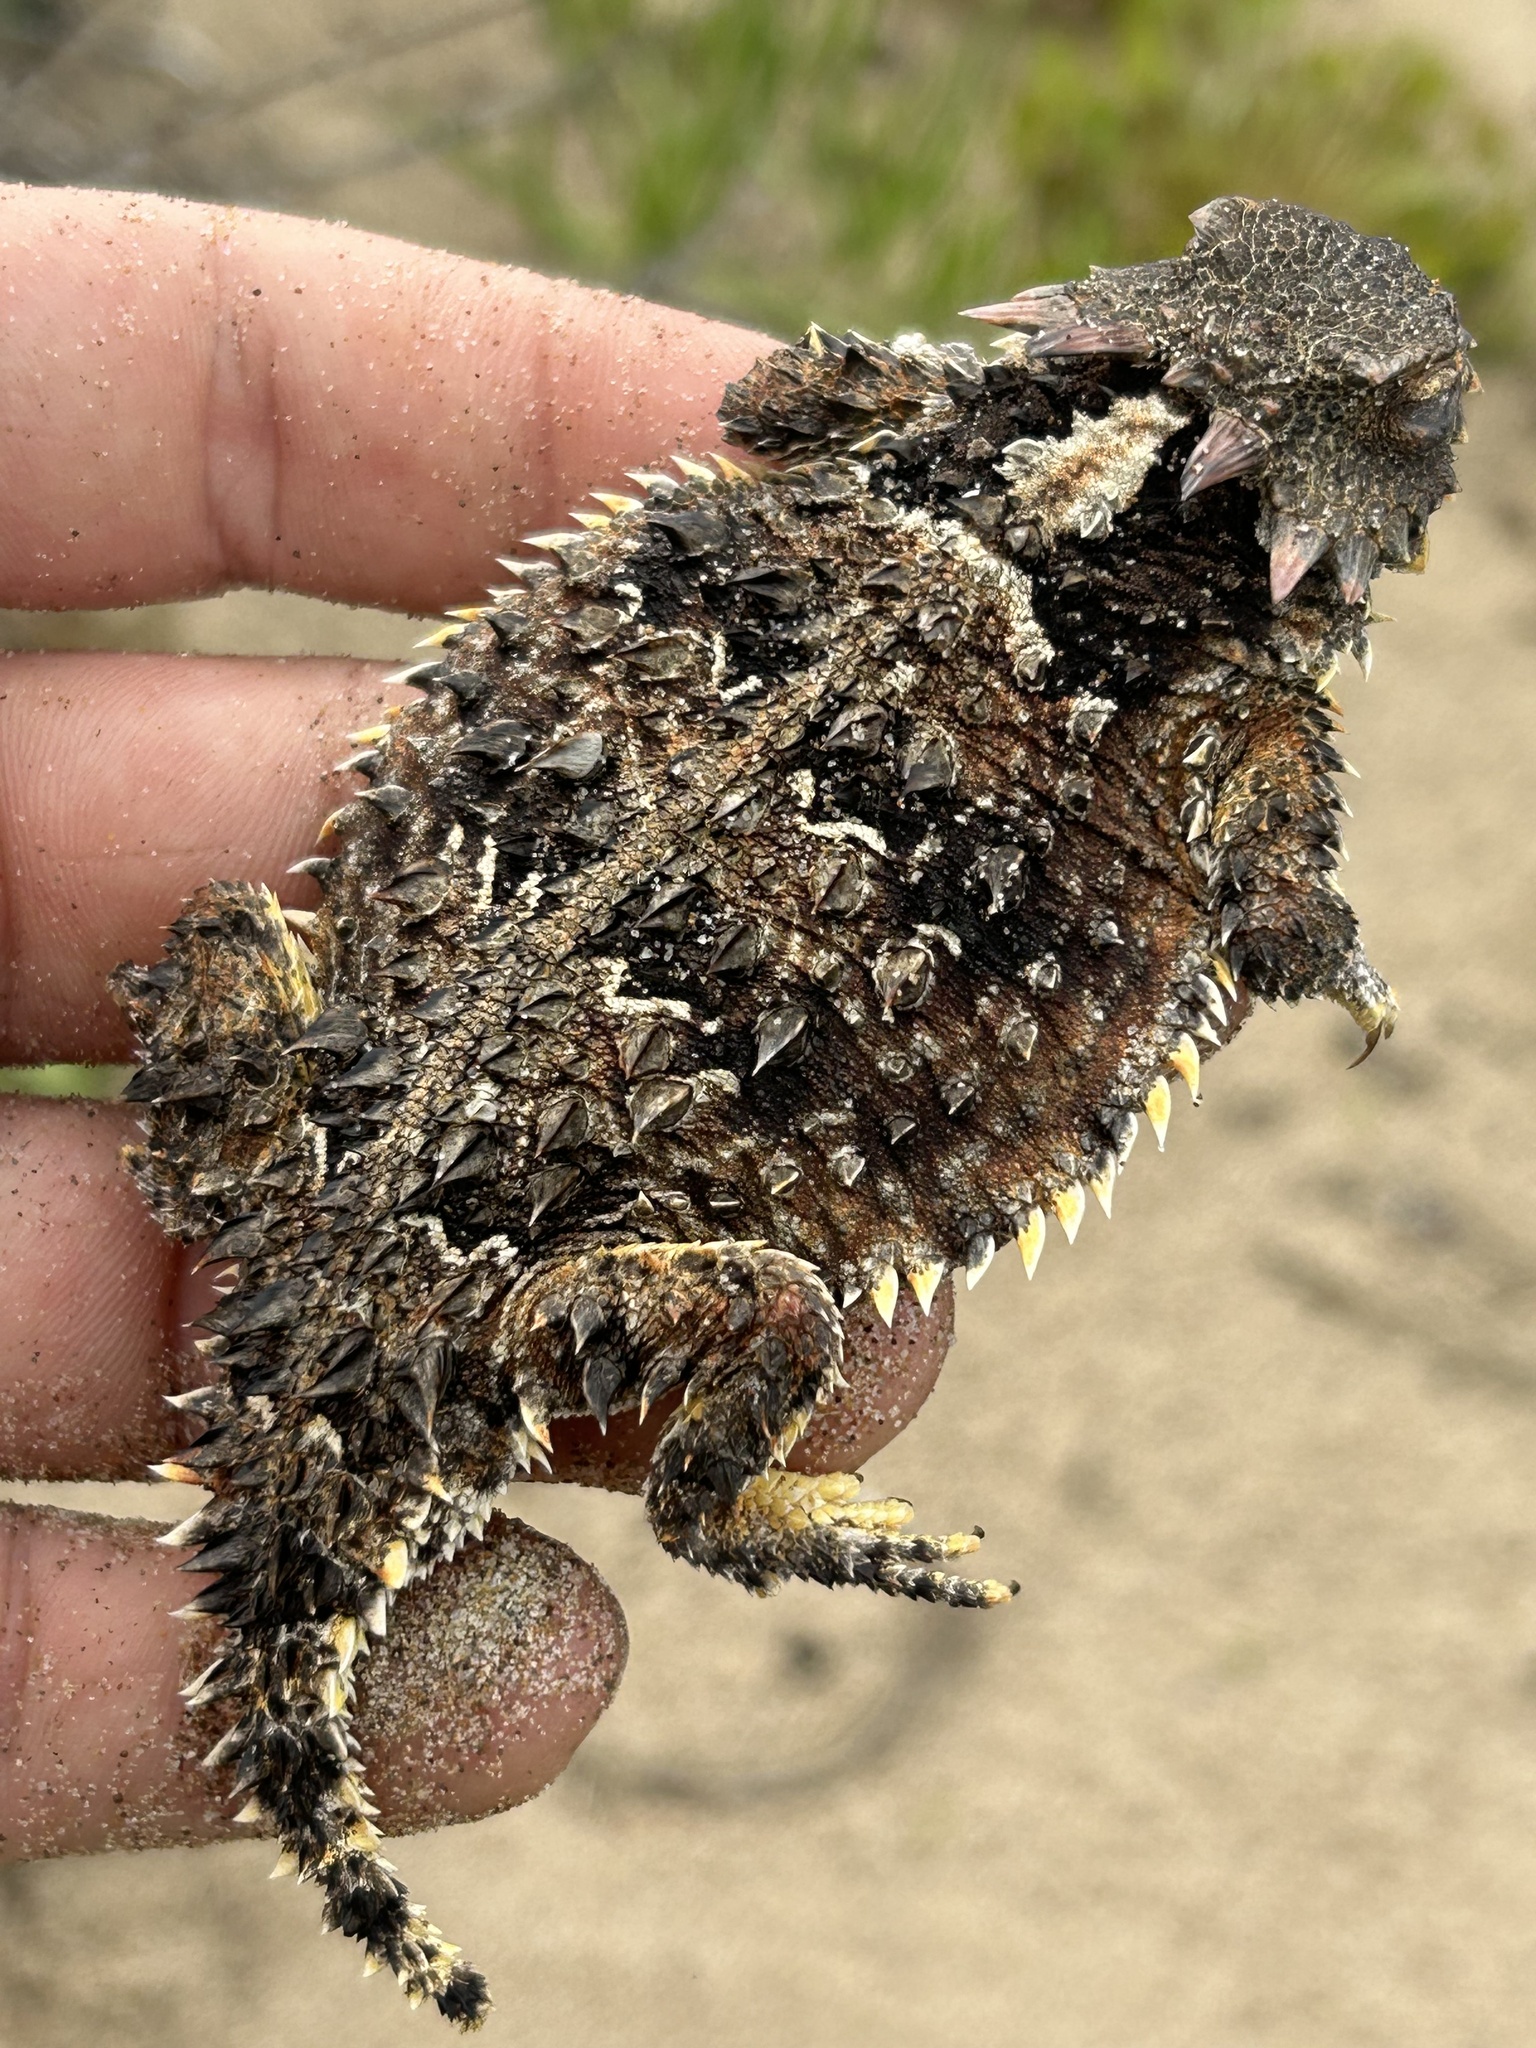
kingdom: Animalia
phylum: Chordata
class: Squamata
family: Phrynosomatidae
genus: Phrynosoma
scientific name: Phrynosoma blainvillii
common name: San diego horned lizard
